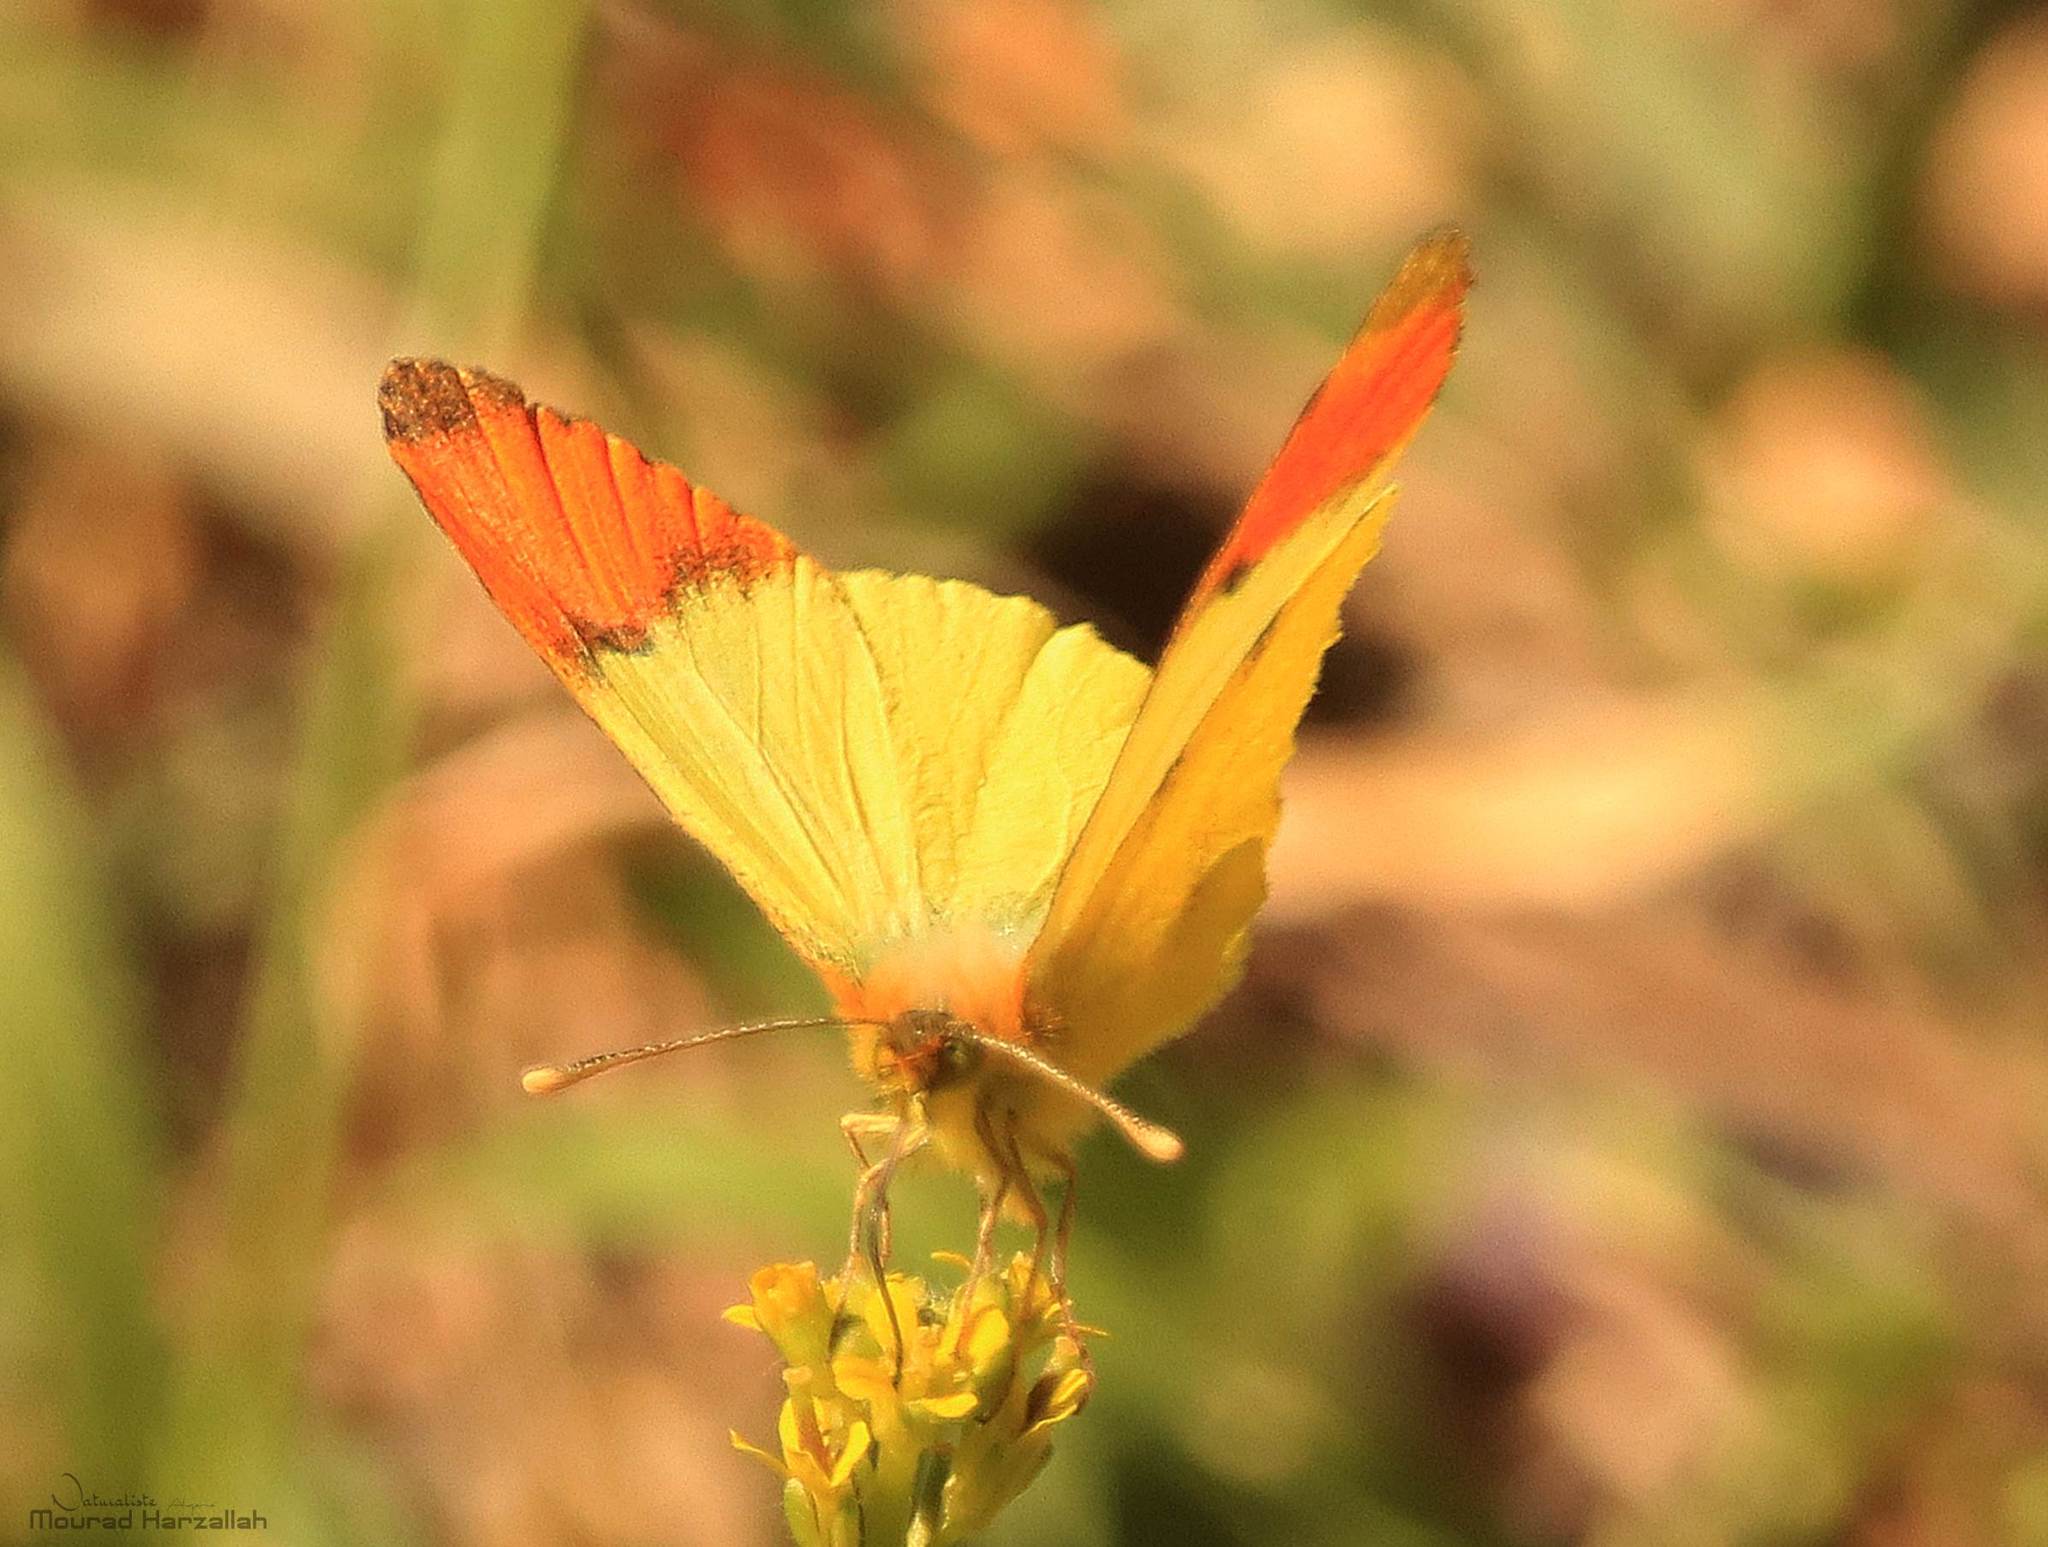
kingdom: Animalia
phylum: Arthropoda
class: Insecta
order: Lepidoptera
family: Pieridae
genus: Anthocharis
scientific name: Anthocharis belia
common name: Moroccan orange tip
